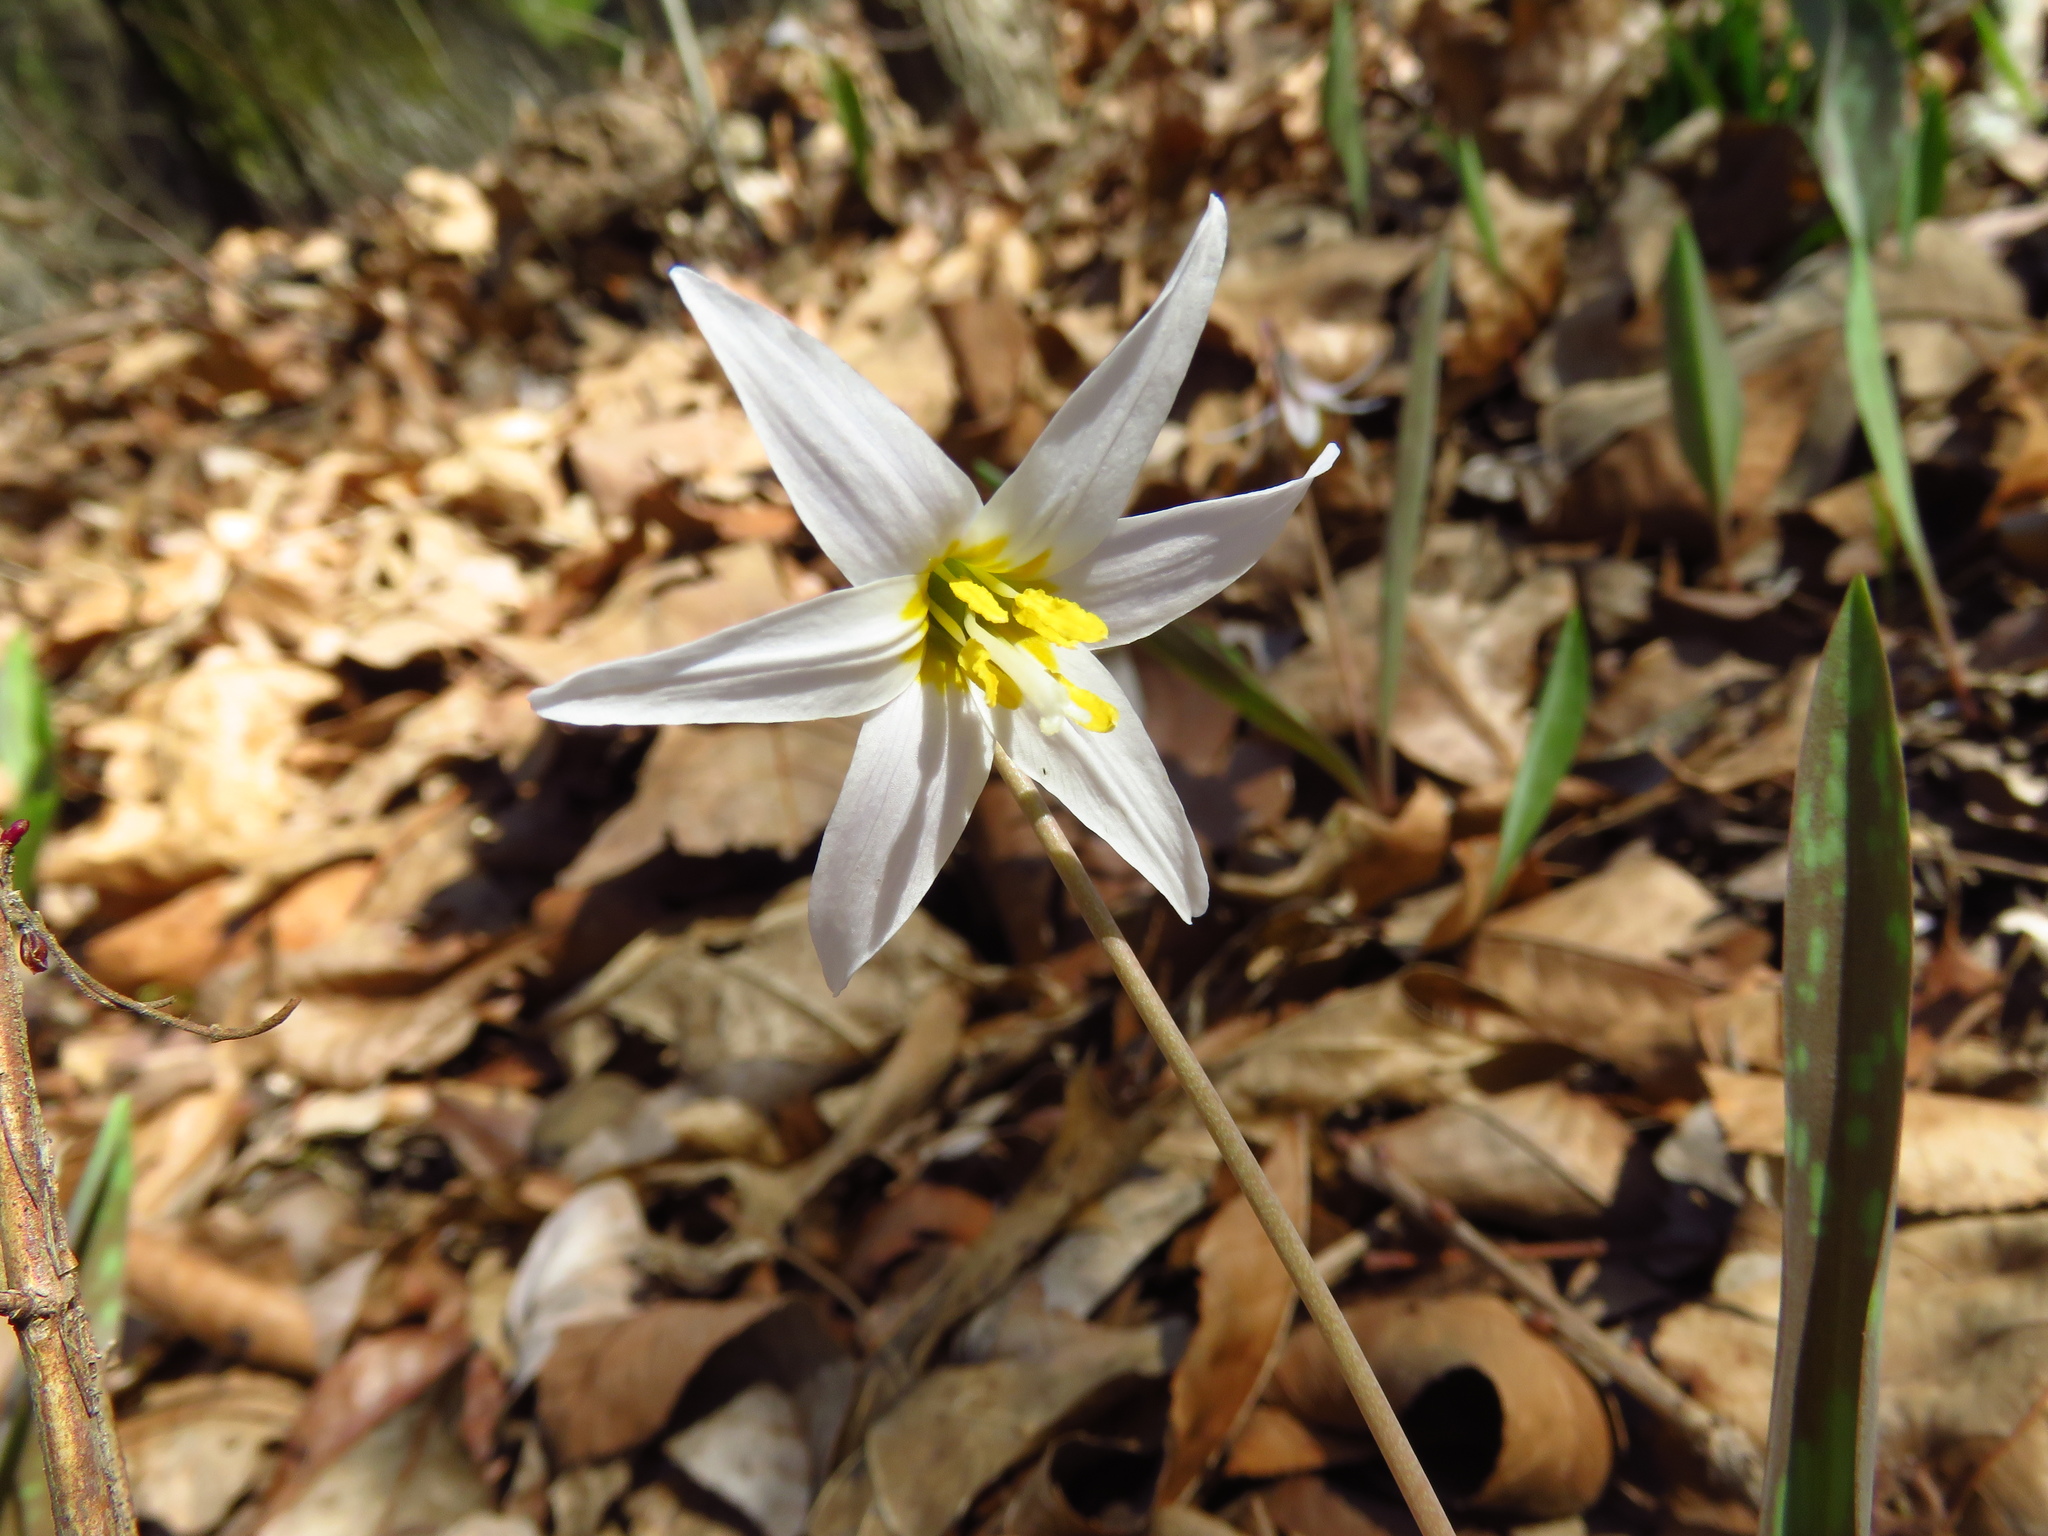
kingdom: Plantae
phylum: Tracheophyta
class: Liliopsida
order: Liliales
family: Liliaceae
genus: Erythronium
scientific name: Erythronium albidum
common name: White trout-lily
